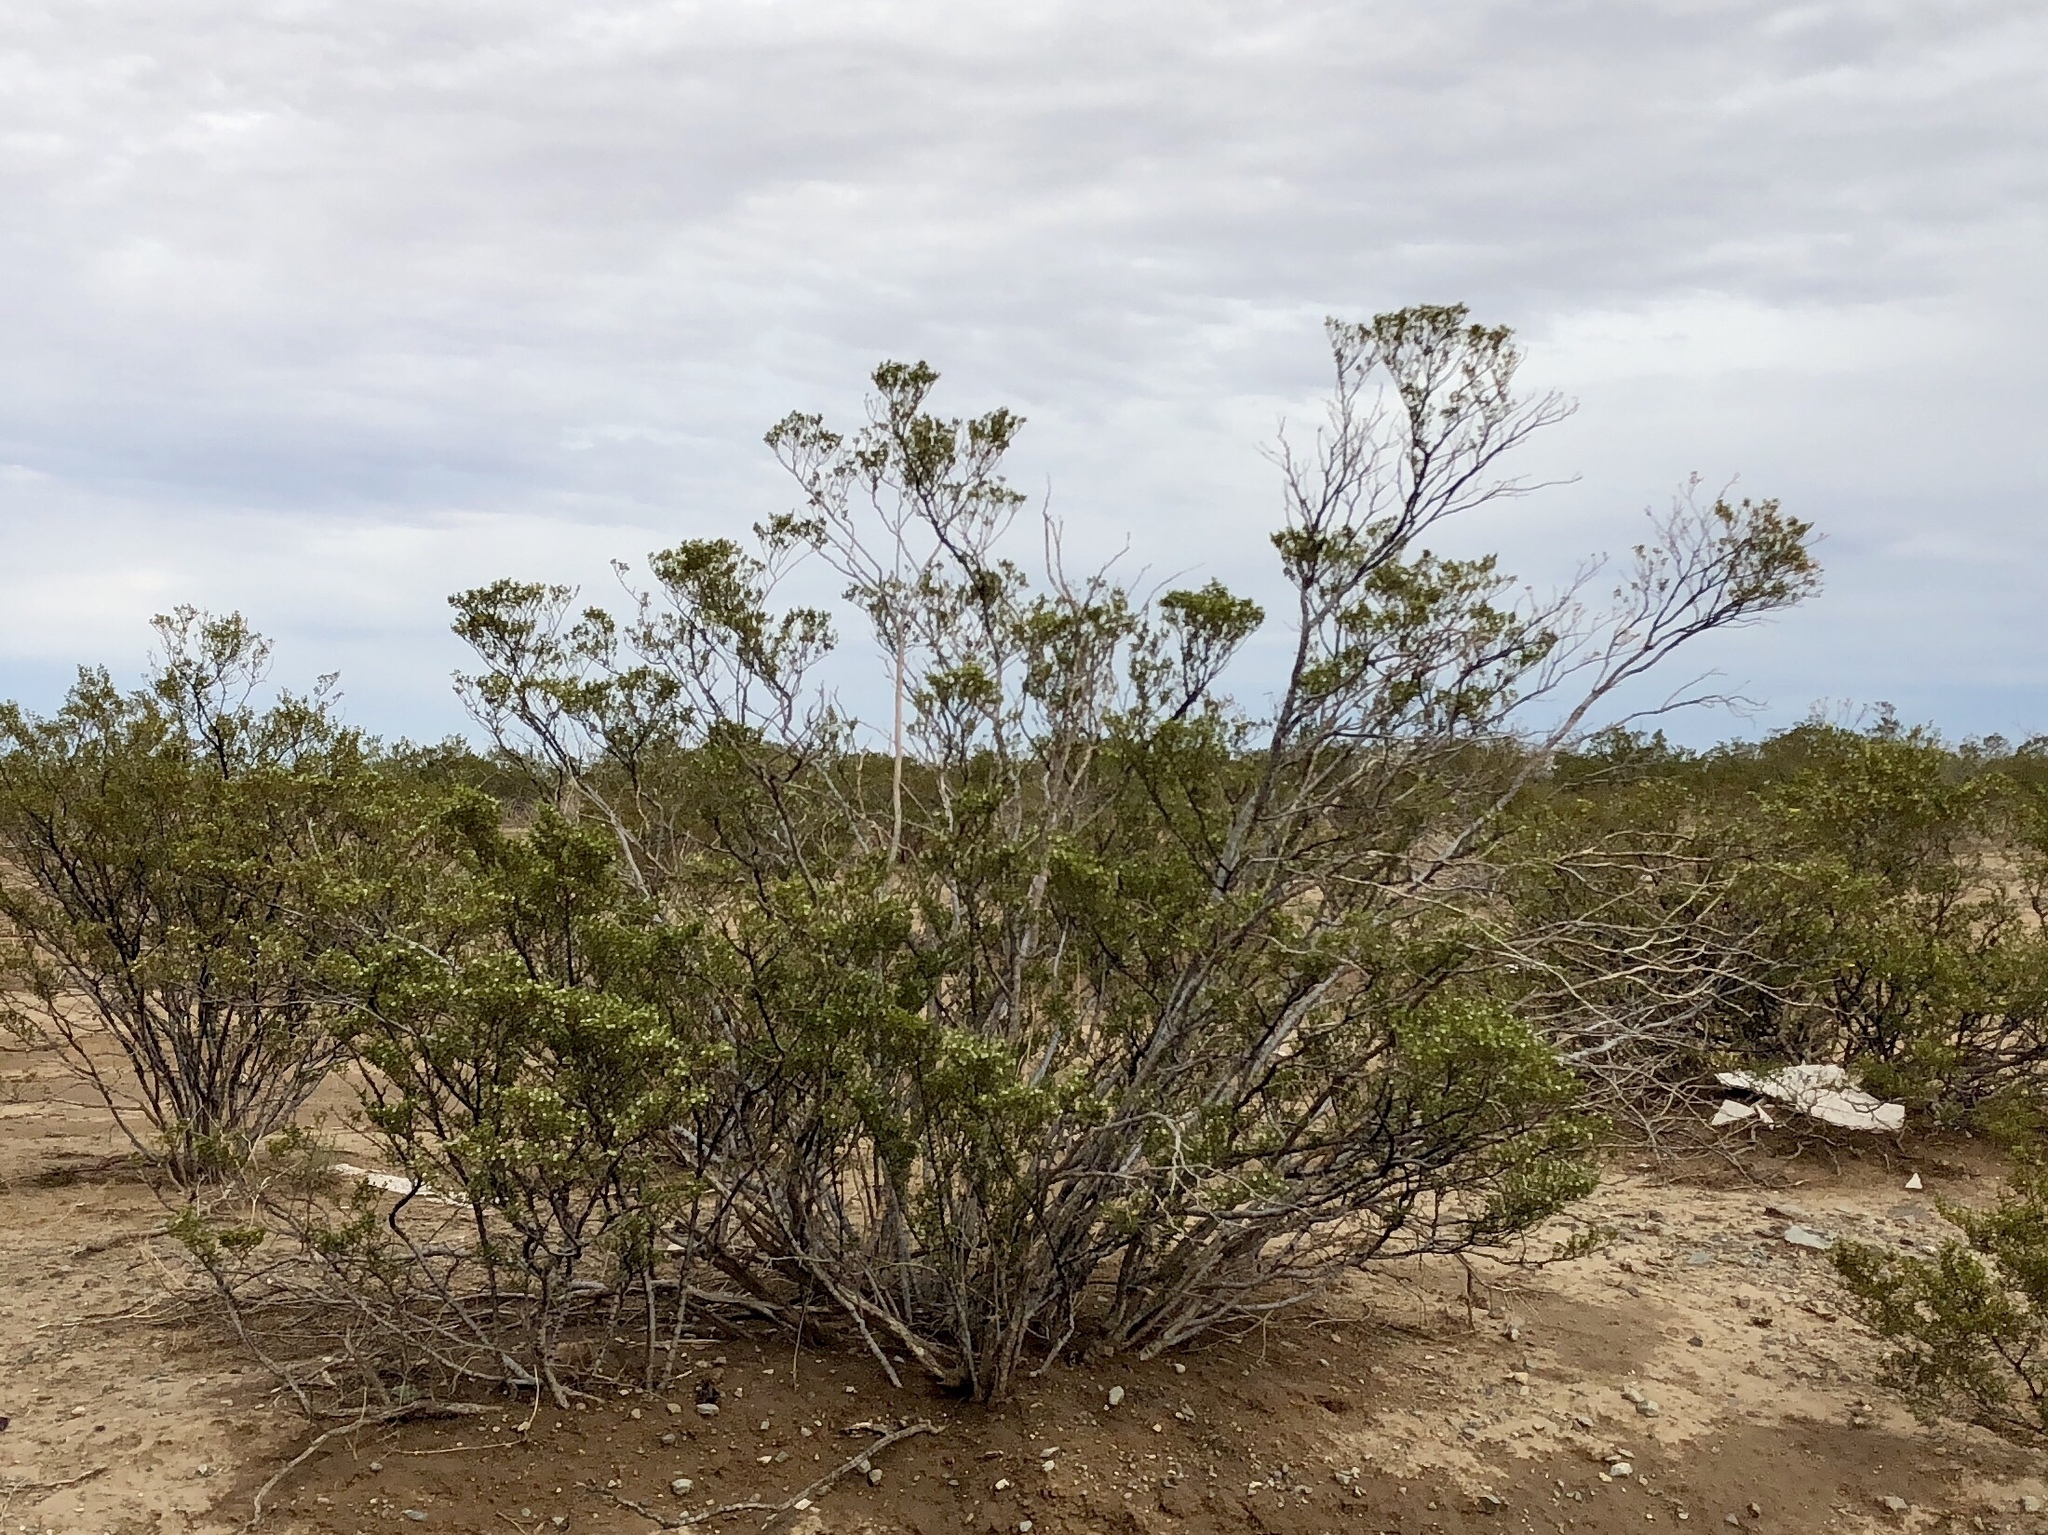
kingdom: Plantae
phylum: Tracheophyta
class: Magnoliopsida
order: Zygophyllales
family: Zygophyllaceae
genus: Larrea
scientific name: Larrea tridentata
